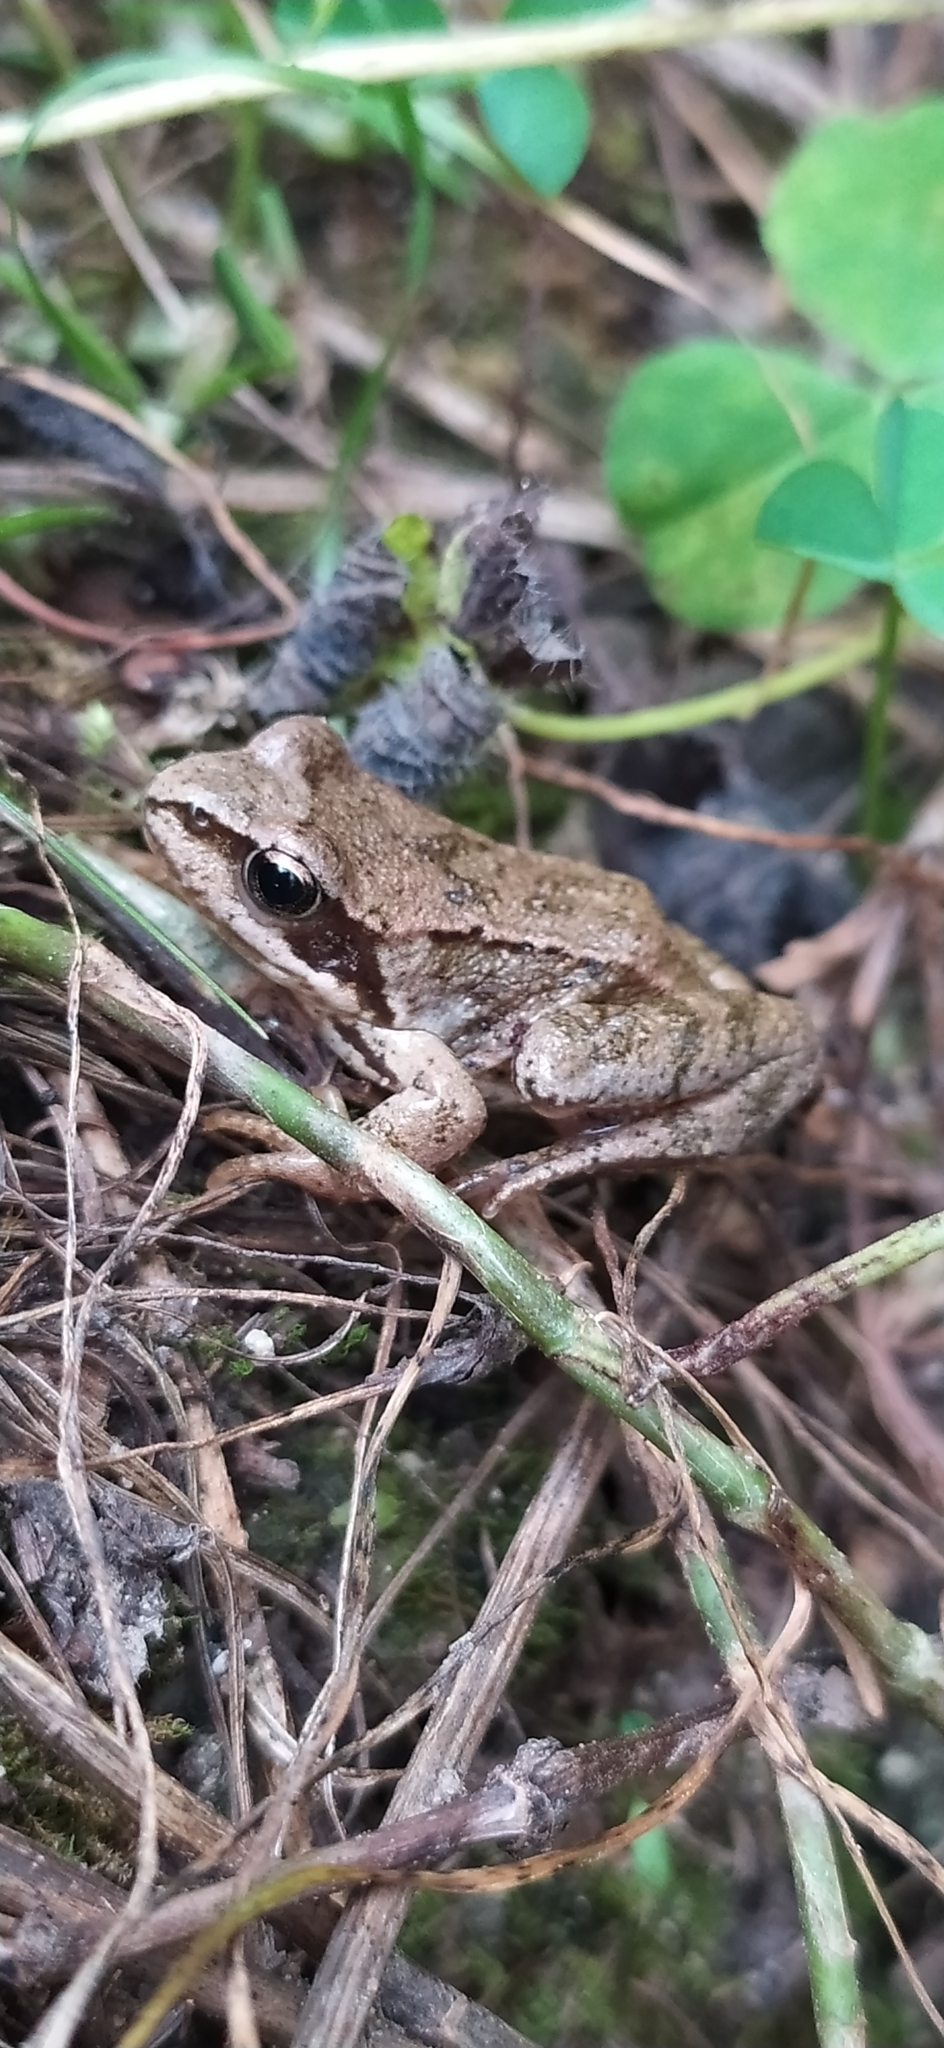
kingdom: Animalia
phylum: Chordata
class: Amphibia
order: Anura
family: Ranidae
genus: Rana
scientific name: Rana temporaria
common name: Common frog
